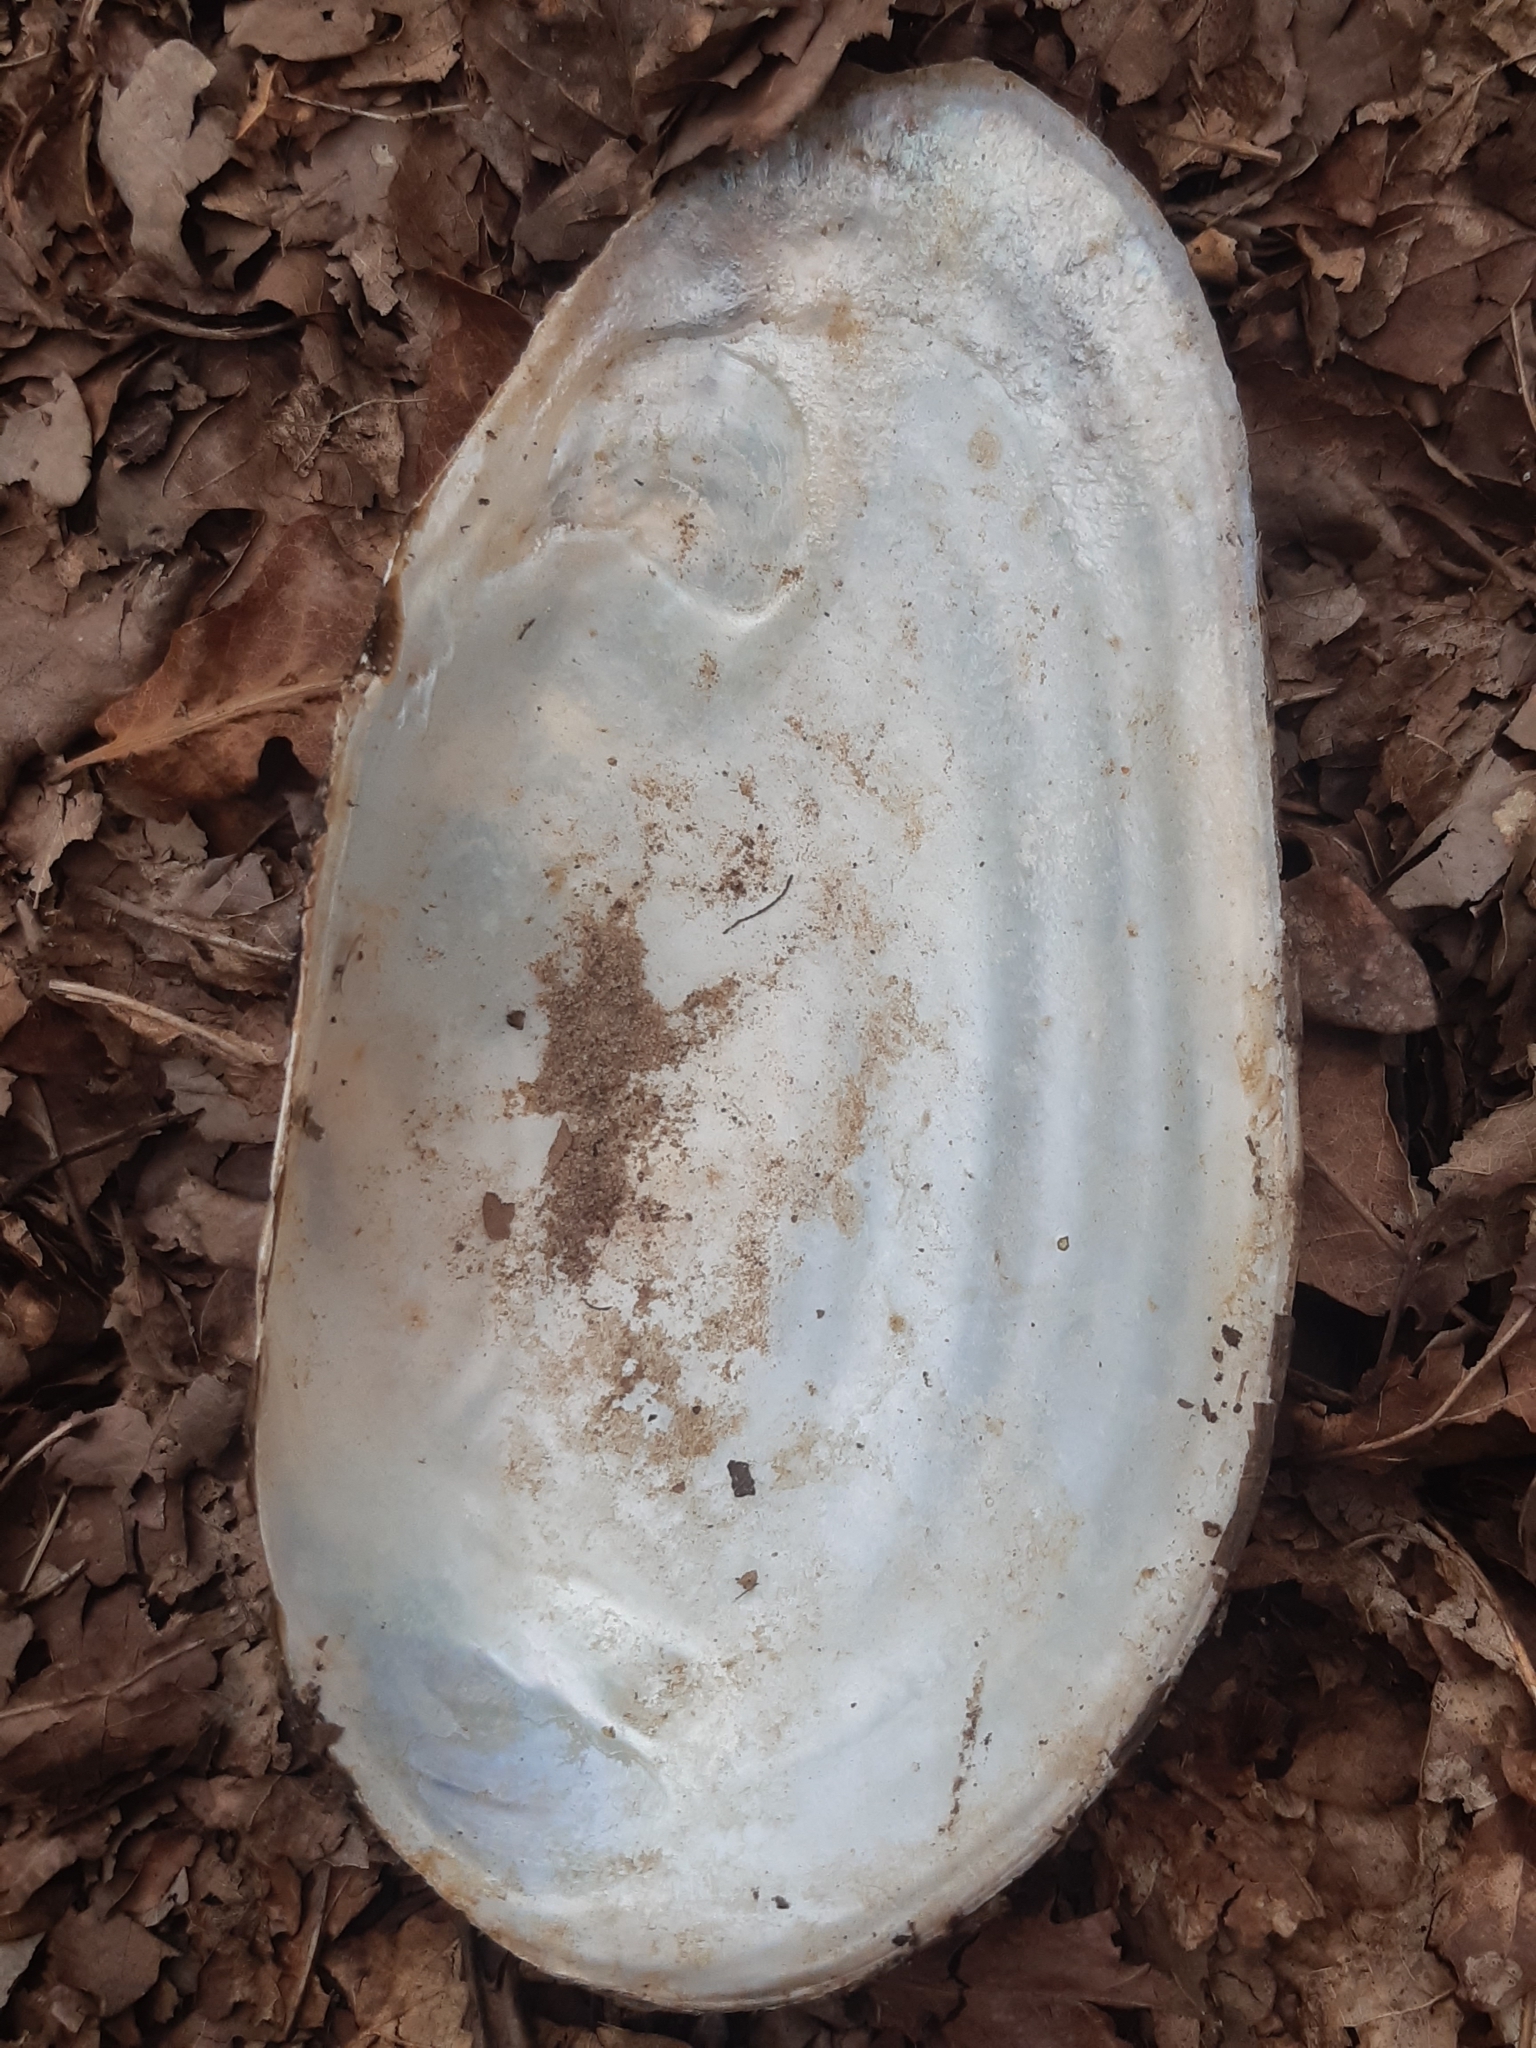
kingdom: Animalia
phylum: Mollusca
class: Bivalvia
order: Unionida
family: Unionidae
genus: Anodonta
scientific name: Anodonta cygnea
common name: Swan mussel
